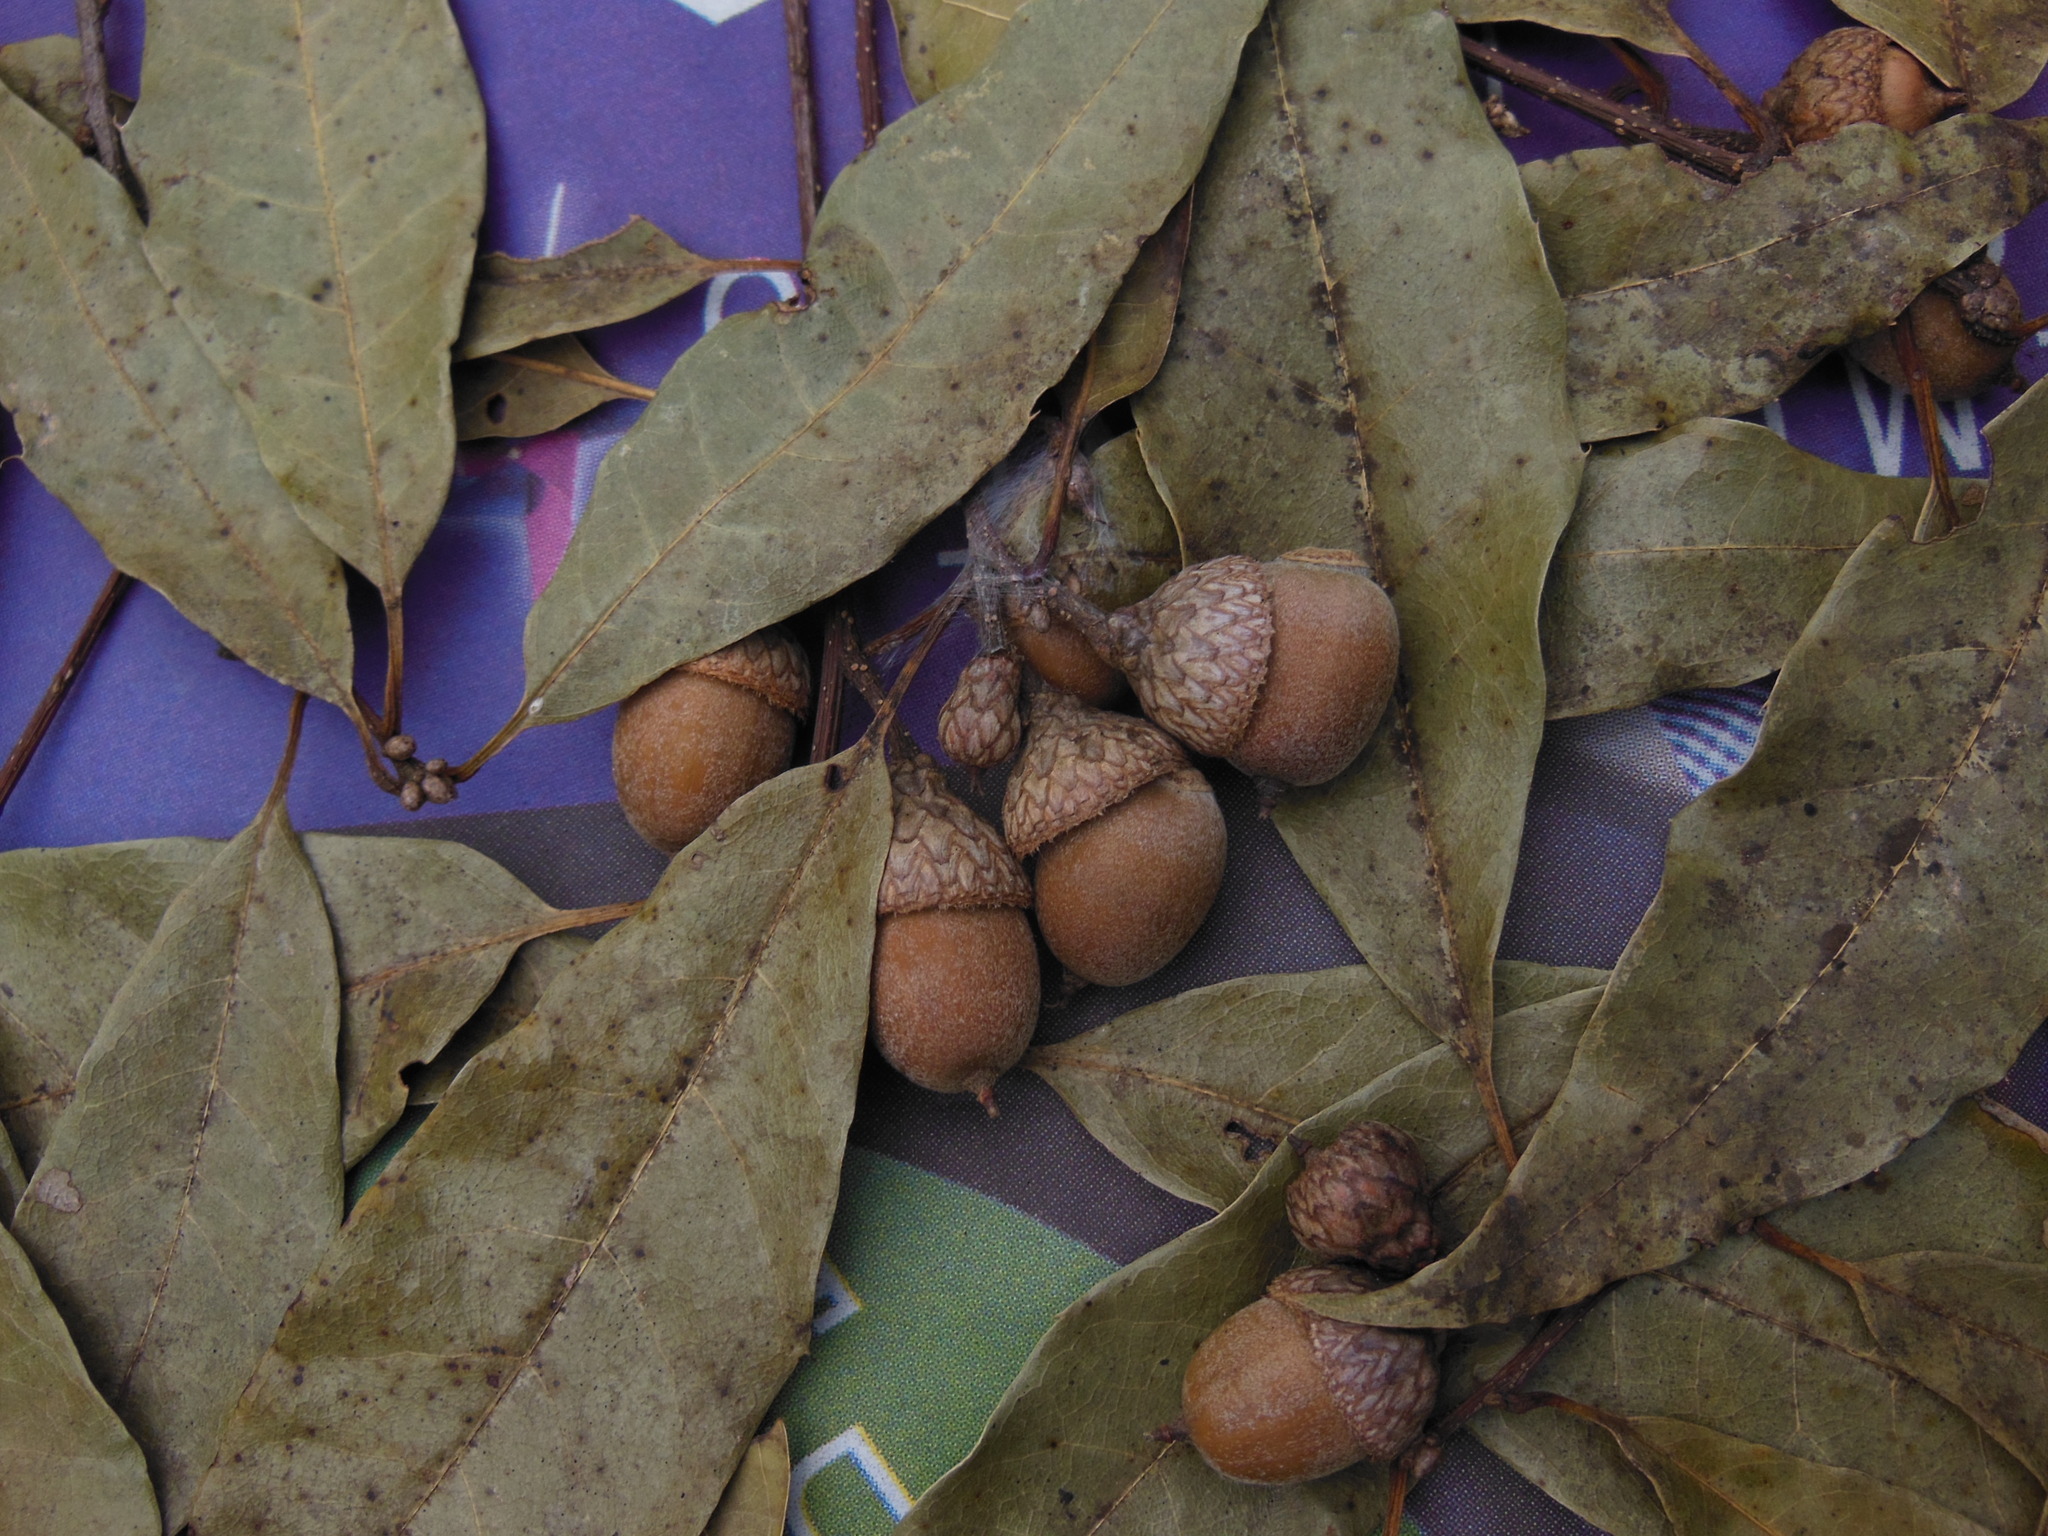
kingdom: Plantae
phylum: Tracheophyta
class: Magnoliopsida
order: Fagales
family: Fagaceae
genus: Quercus
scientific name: Quercus cortesii
